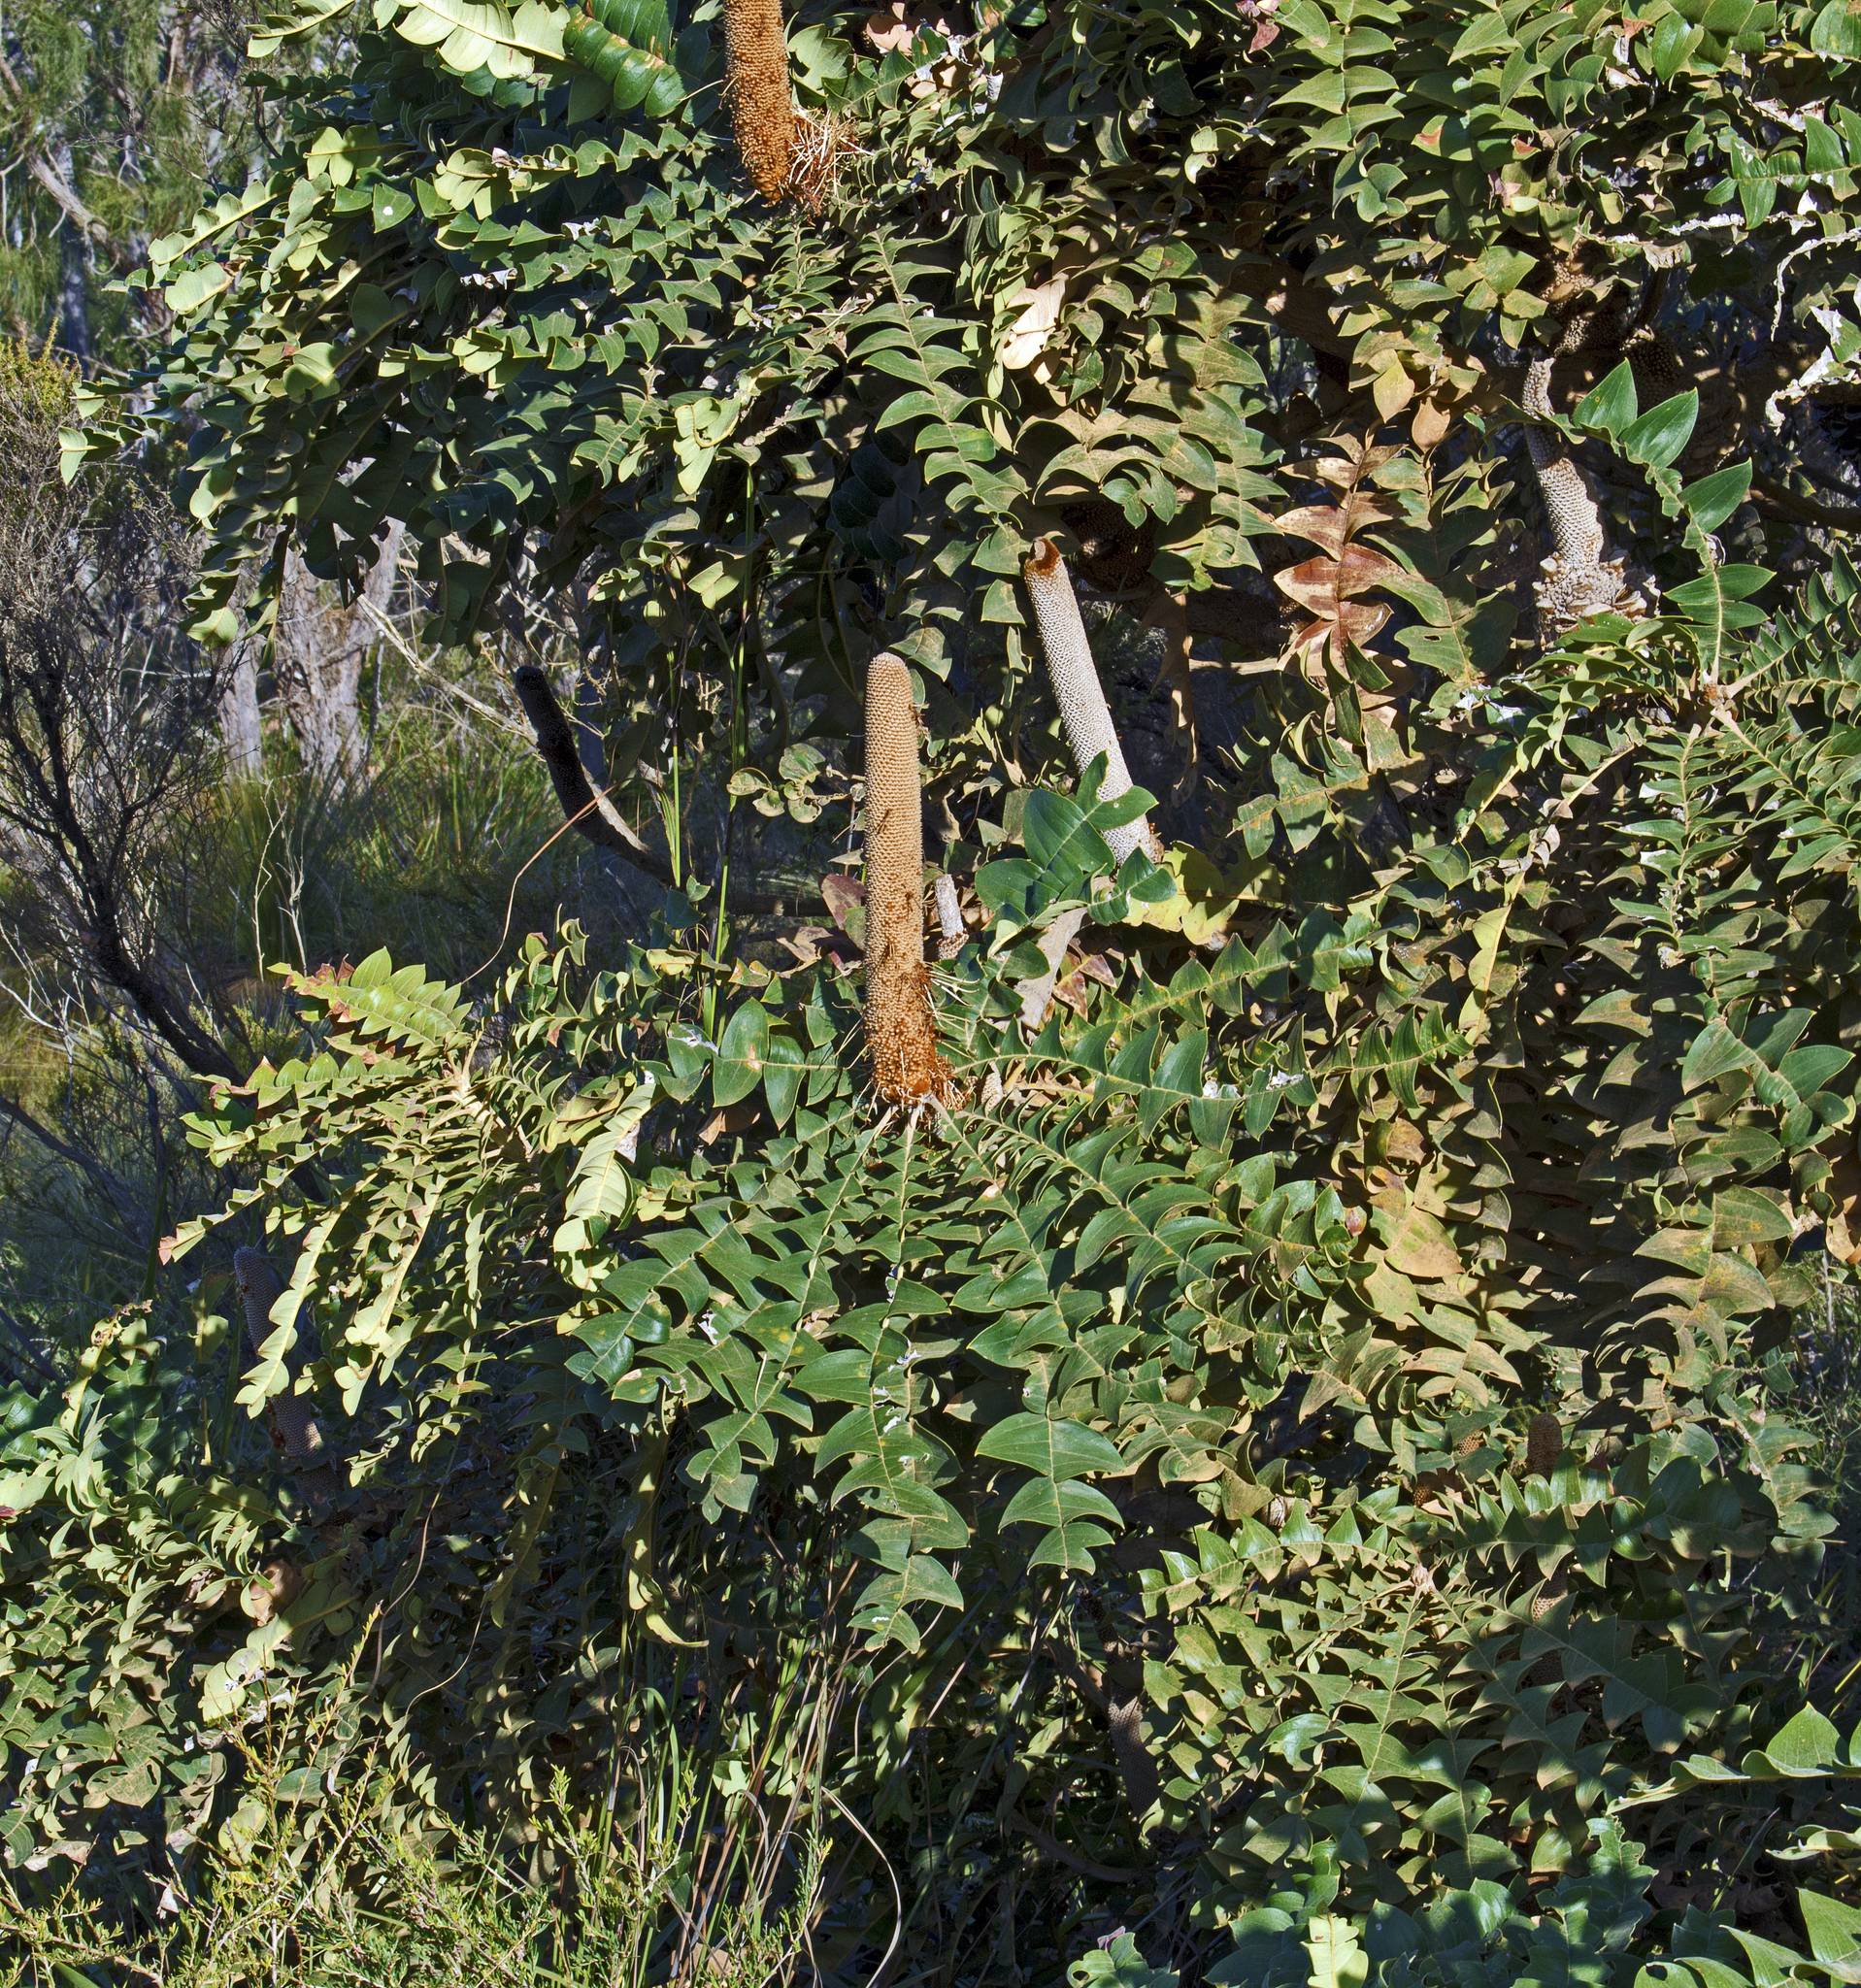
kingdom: Plantae
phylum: Tracheophyta
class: Magnoliopsida
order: Proteales
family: Proteaceae
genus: Banksia
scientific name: Banksia grandis
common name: Giant banksia
